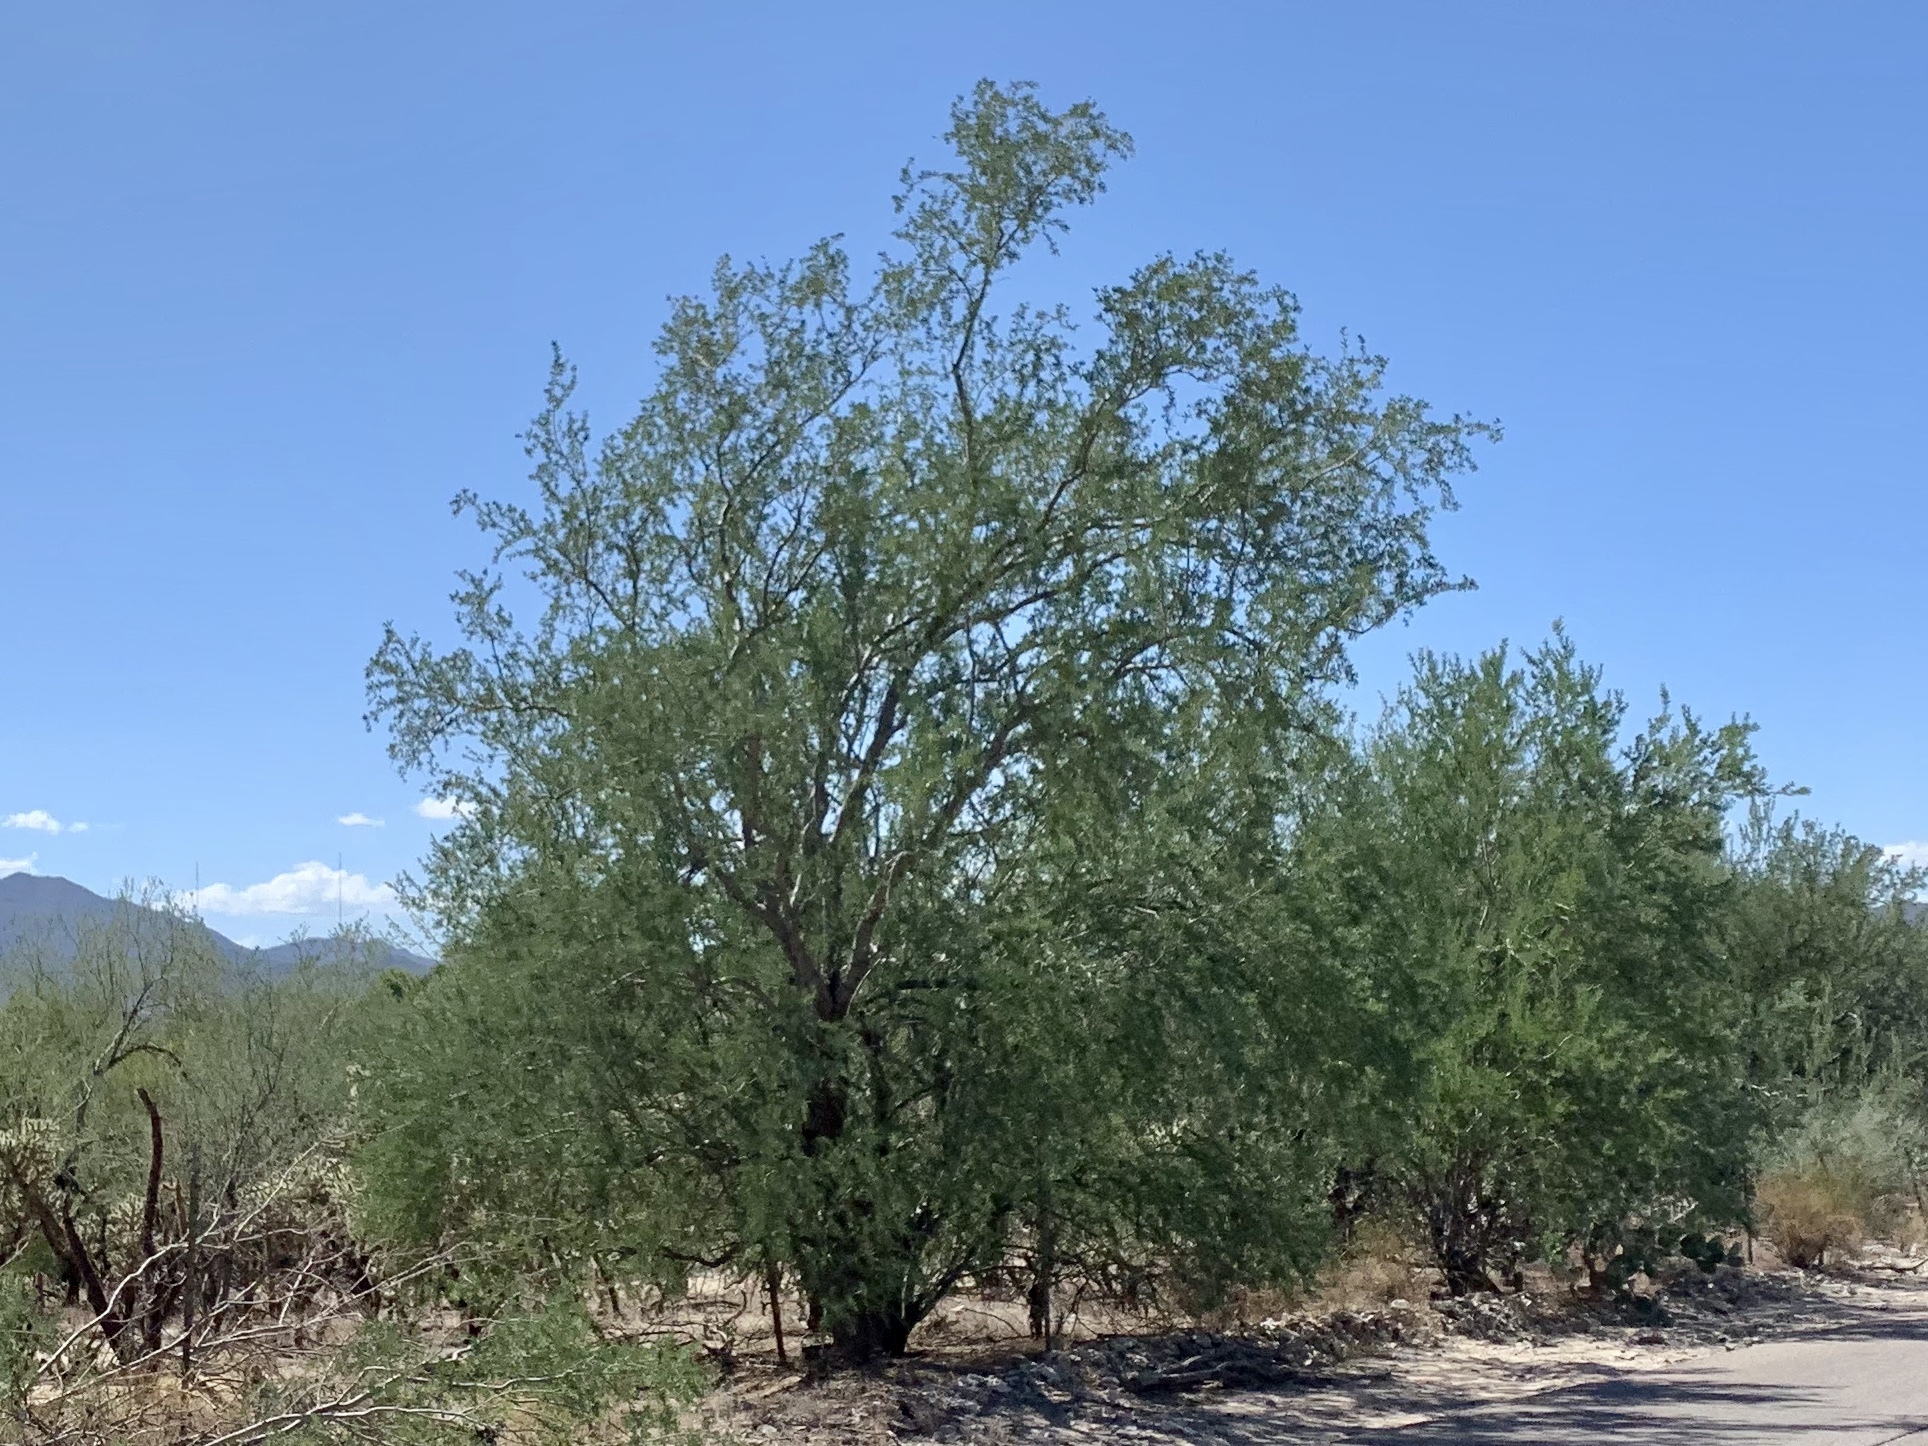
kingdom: Plantae
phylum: Tracheophyta
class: Magnoliopsida
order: Fabales
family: Fabaceae
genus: Olneya
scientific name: Olneya tesota
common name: Desert ironwood
